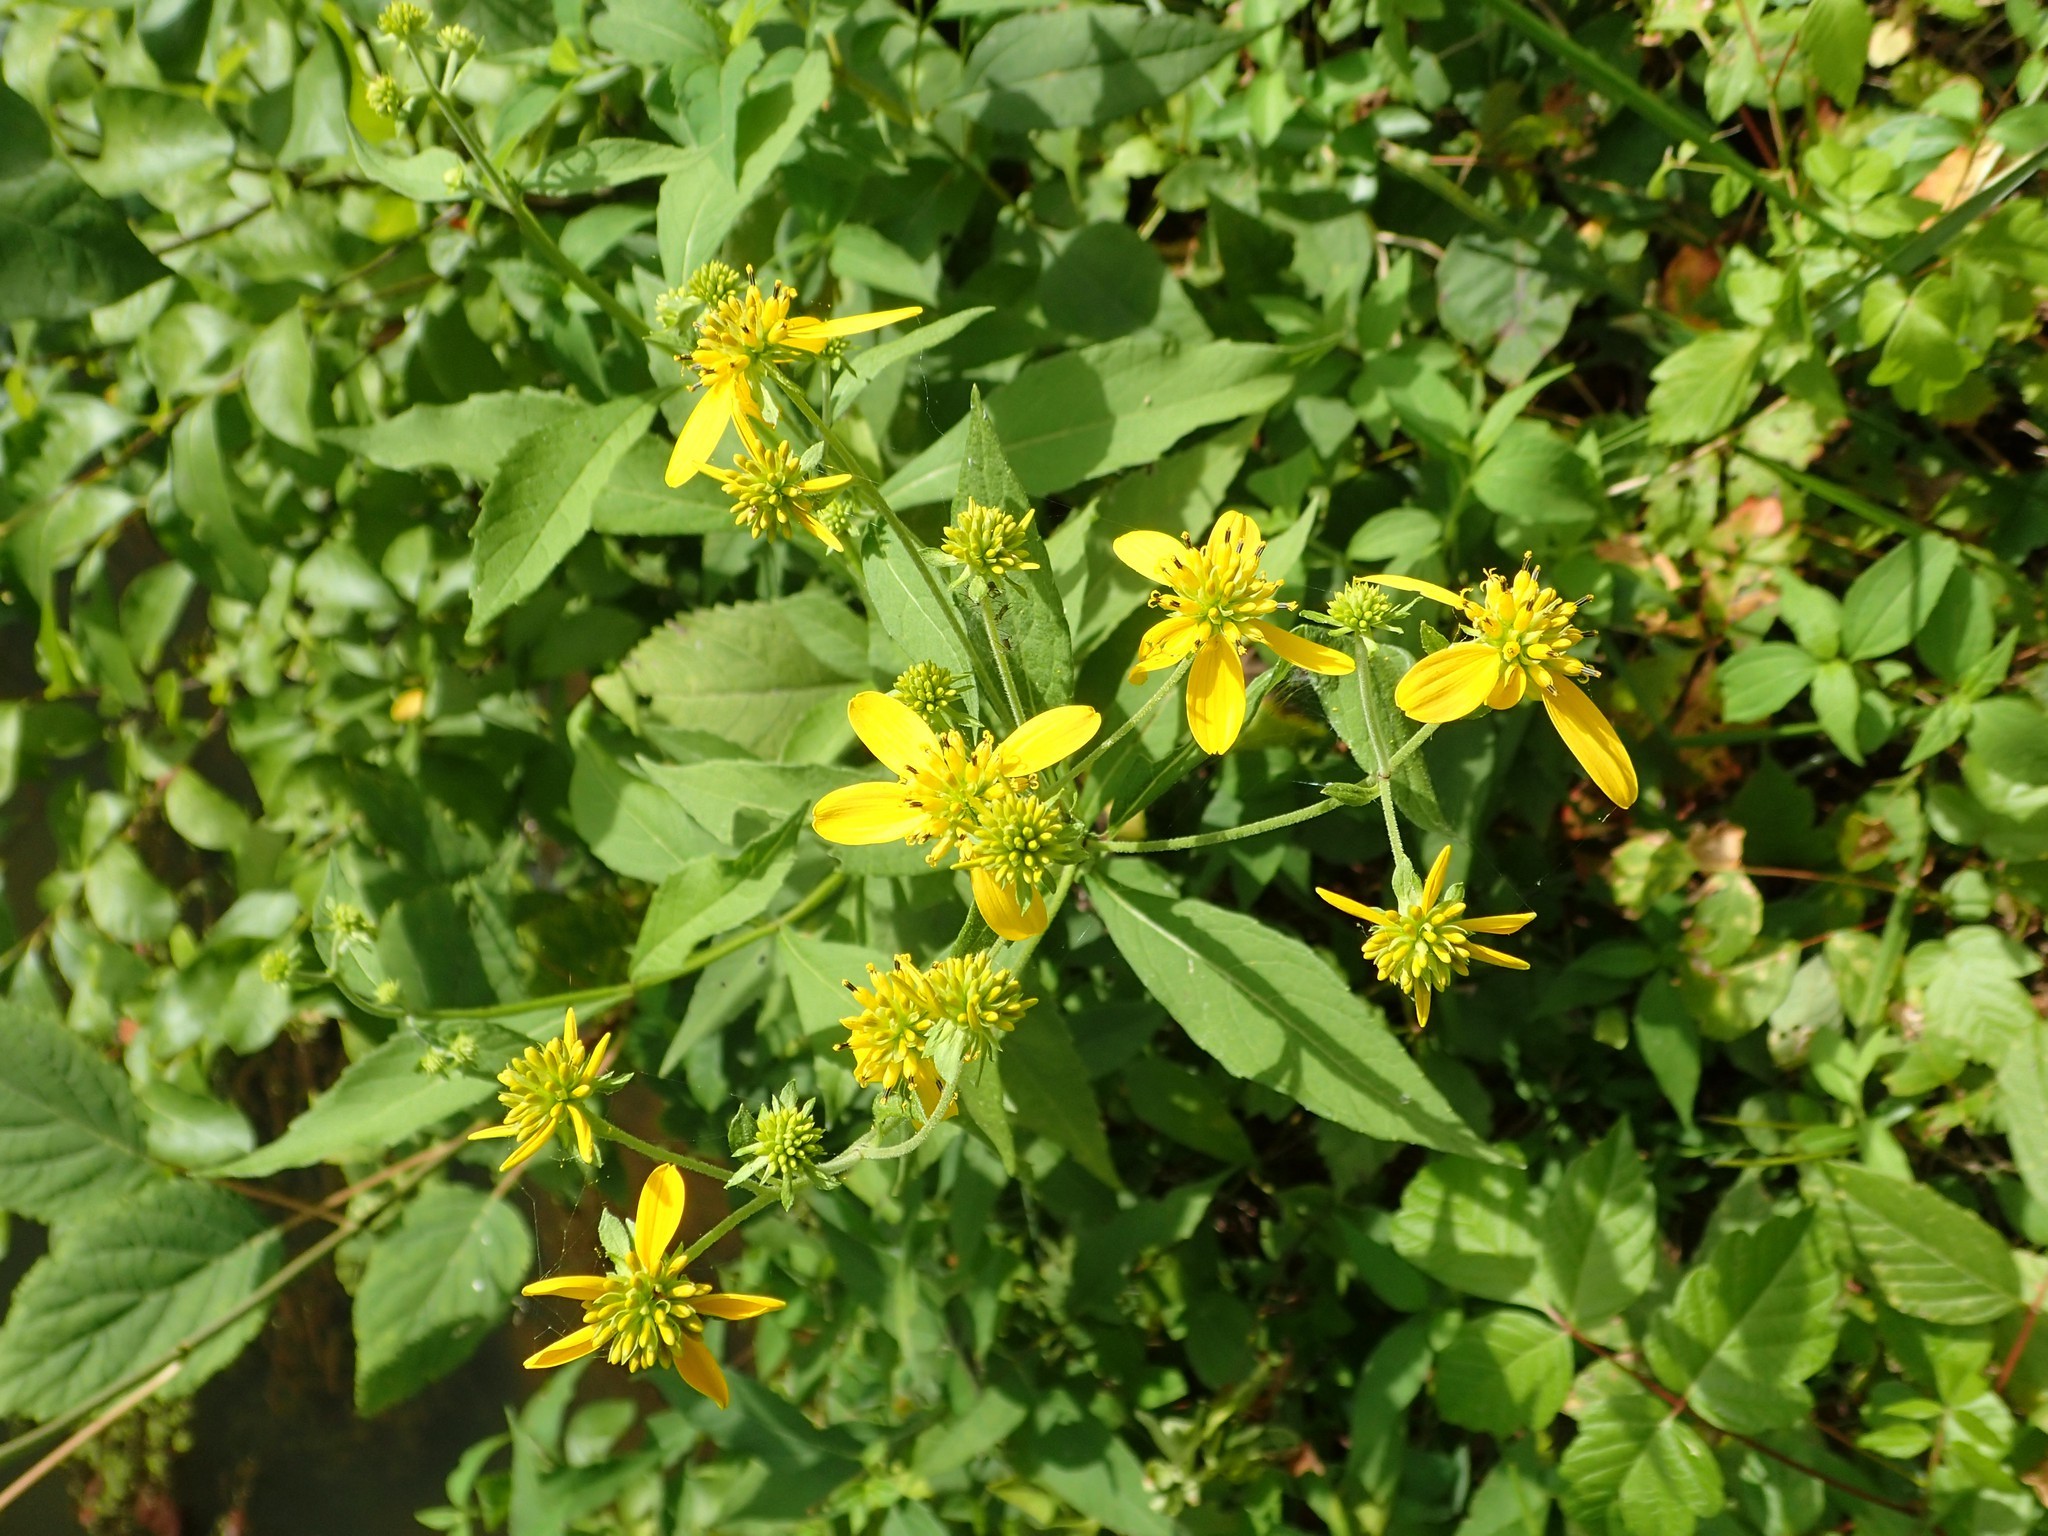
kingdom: Plantae
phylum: Tracheophyta
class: Magnoliopsida
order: Asterales
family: Asteraceae
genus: Verbesina
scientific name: Verbesina alternifolia
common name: Wingstem
